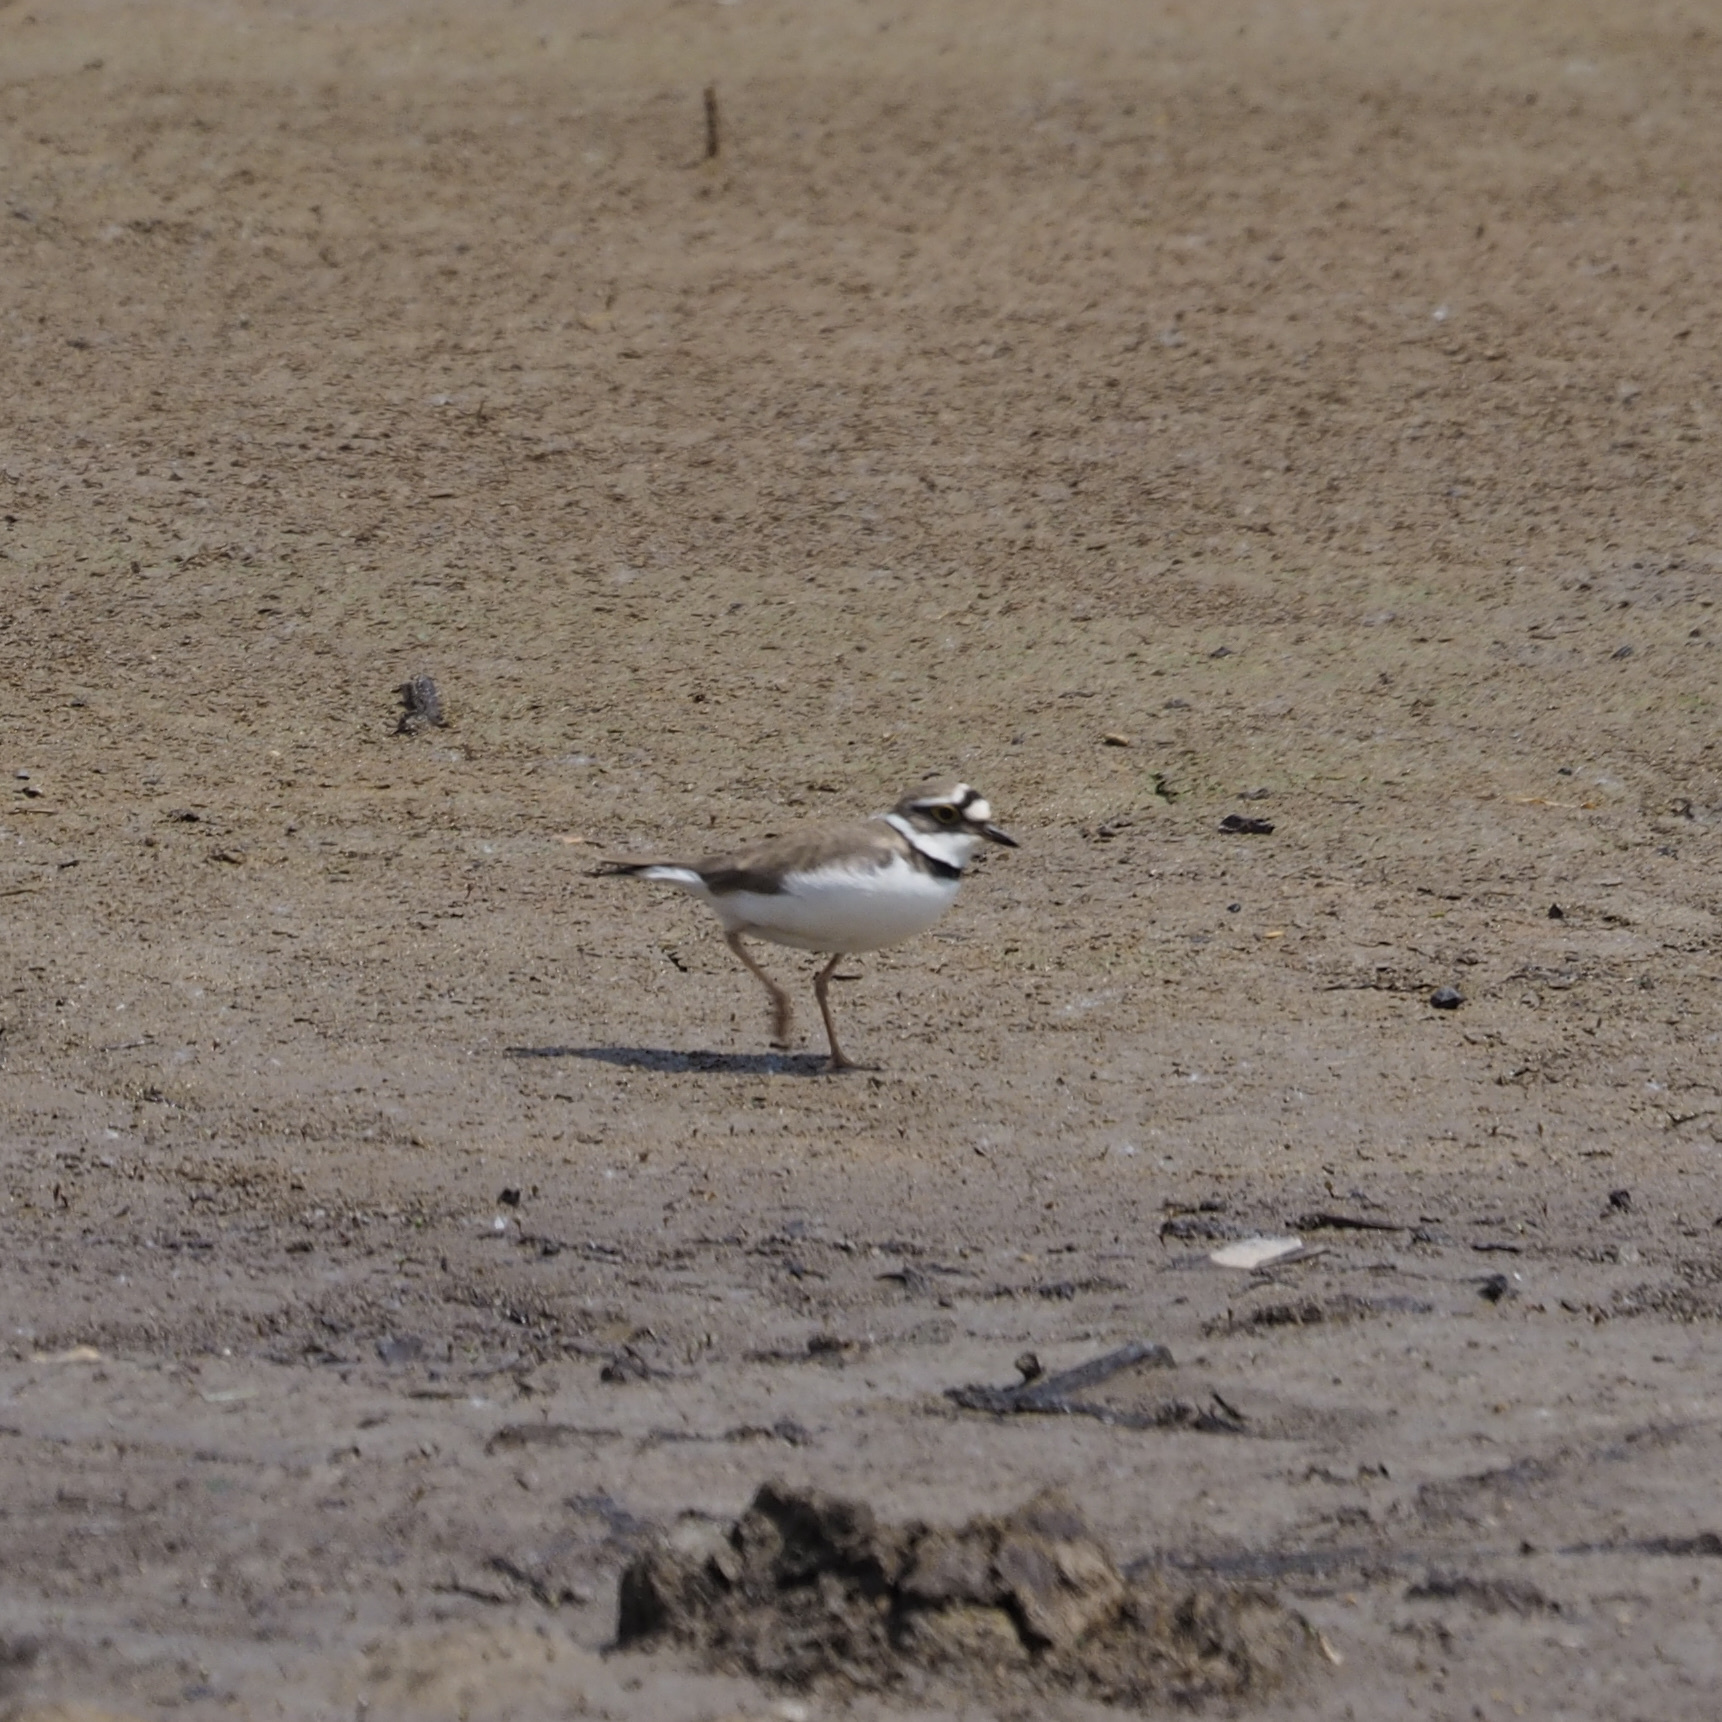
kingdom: Animalia
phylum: Chordata
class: Aves
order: Charadriiformes
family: Charadriidae
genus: Charadrius
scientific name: Charadrius dubius
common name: Little ringed plover
